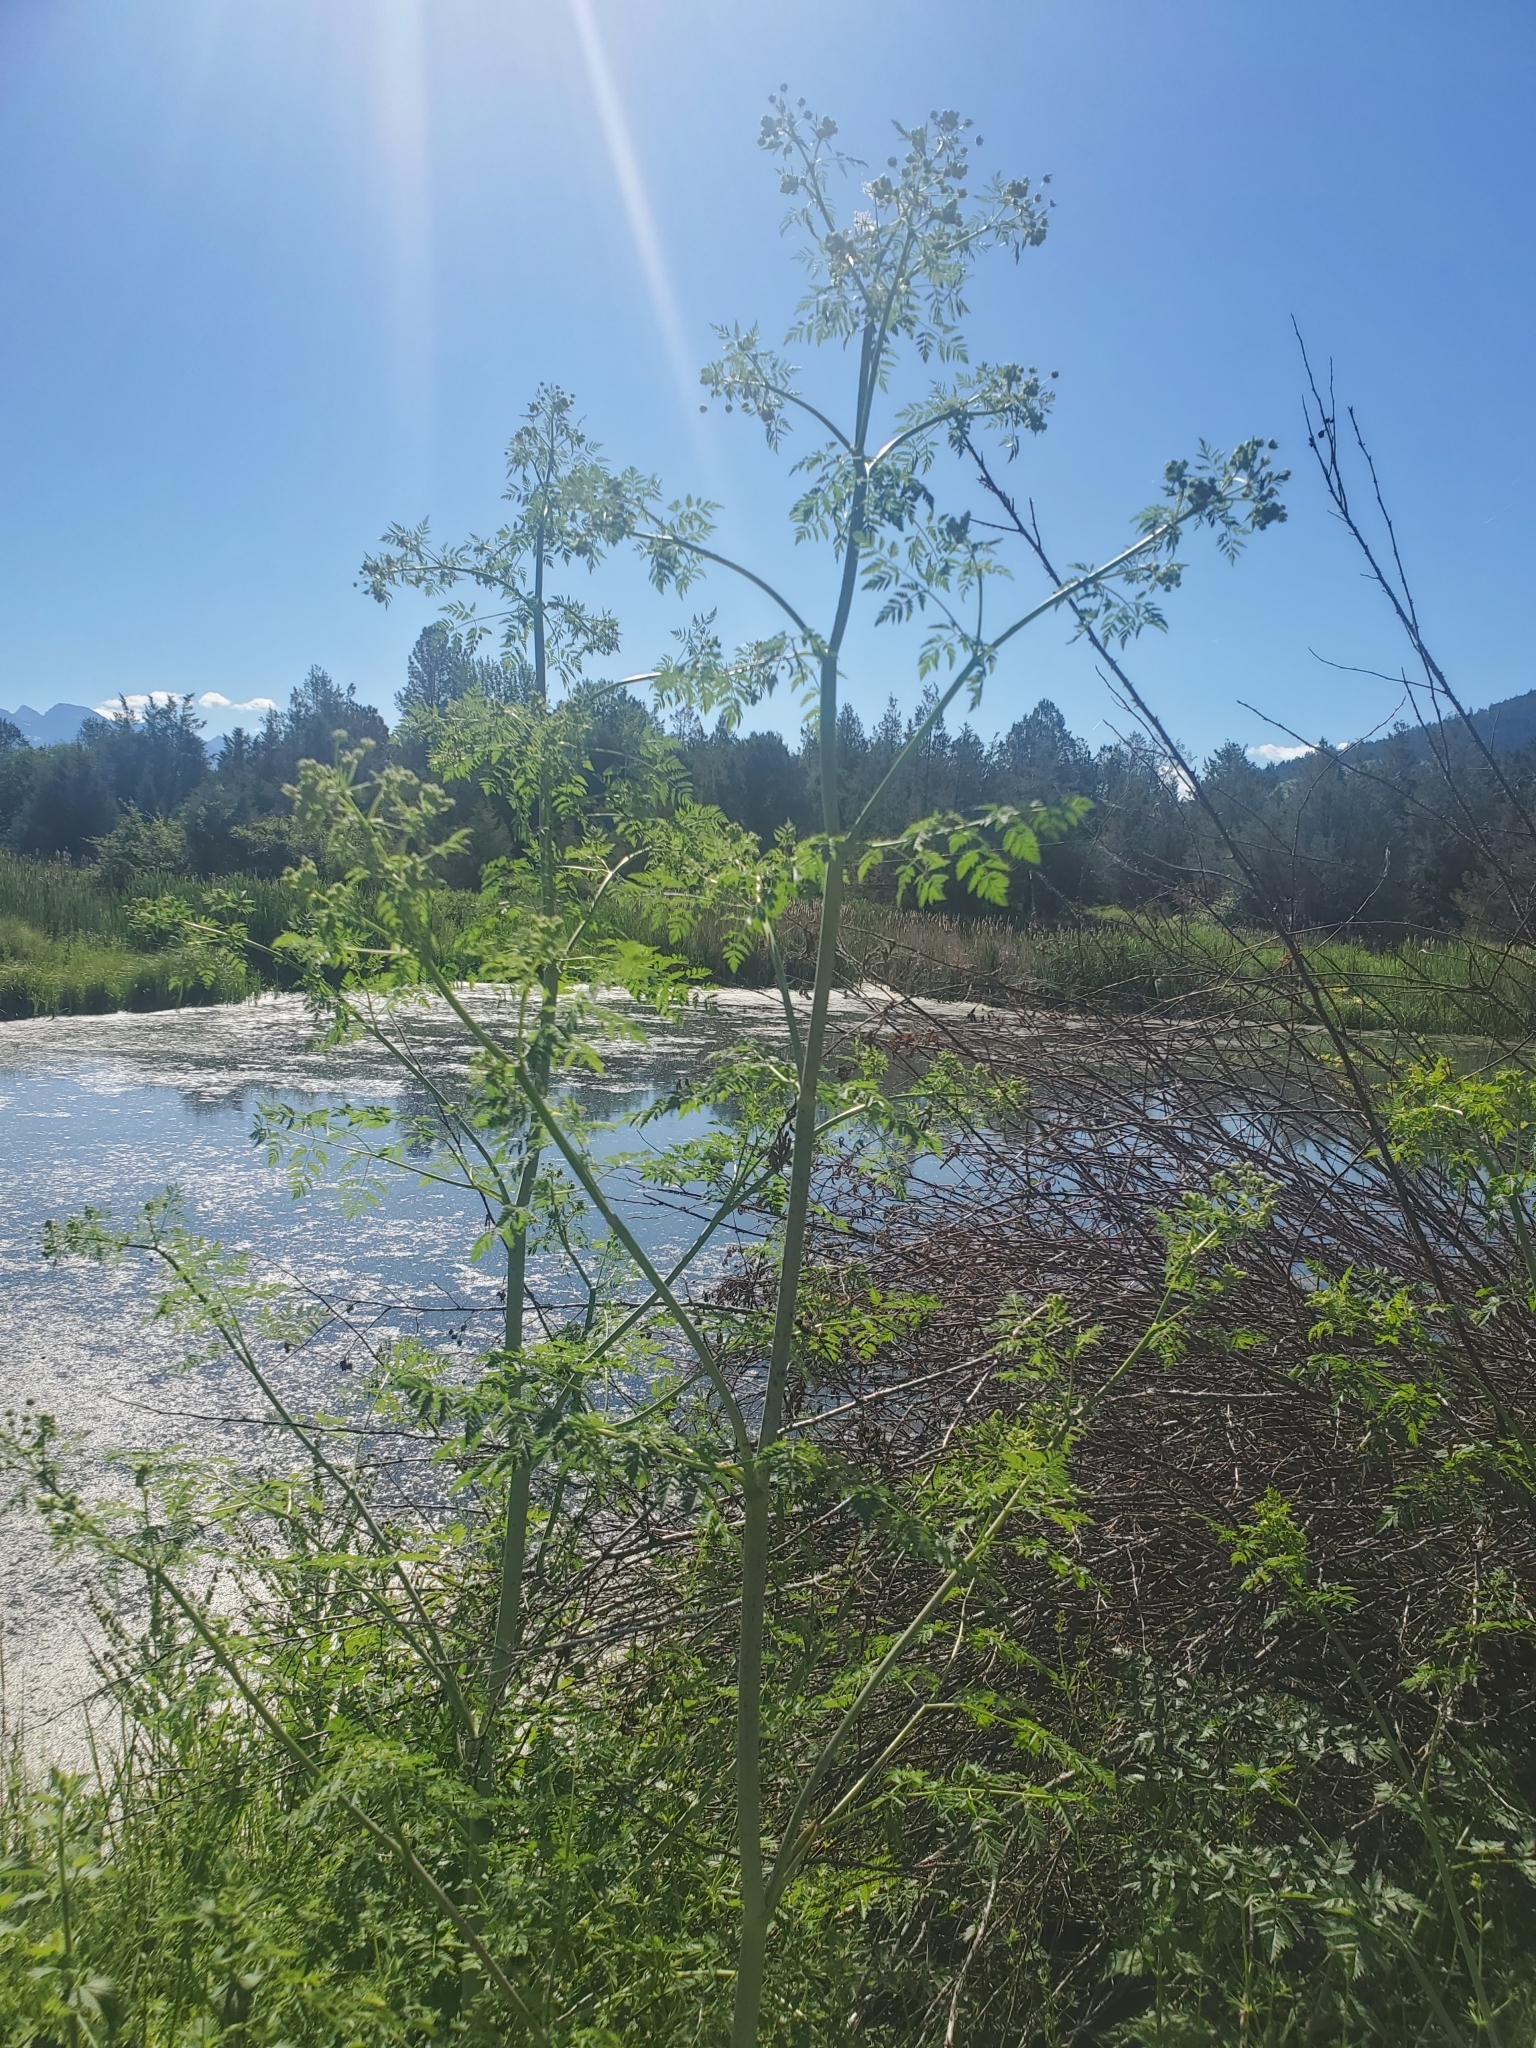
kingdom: Plantae
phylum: Tracheophyta
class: Magnoliopsida
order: Apiales
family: Apiaceae
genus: Conium
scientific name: Conium maculatum
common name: Hemlock
